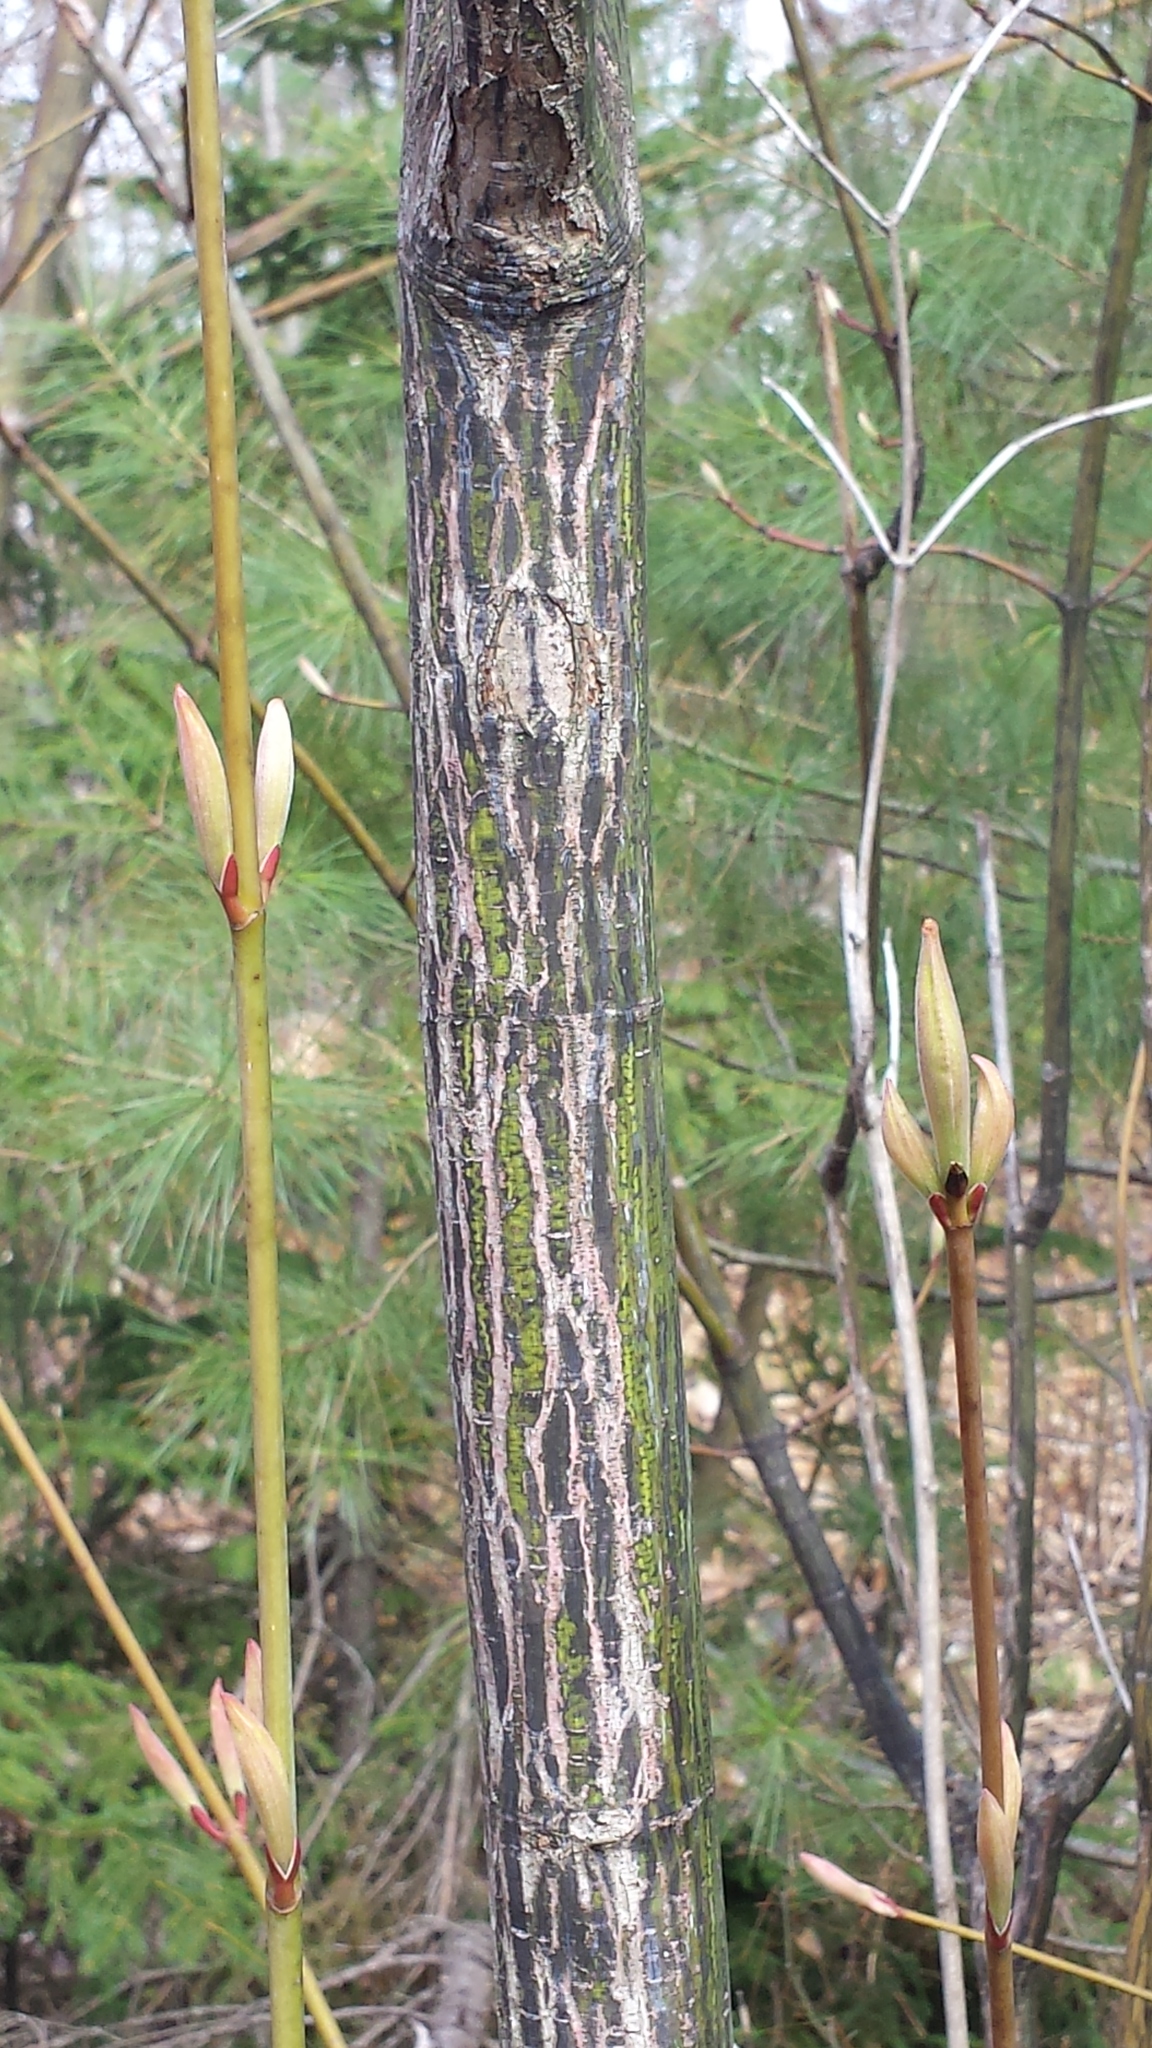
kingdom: Plantae
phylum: Tracheophyta
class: Magnoliopsida
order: Sapindales
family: Sapindaceae
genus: Acer
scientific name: Acer pensylvanicum
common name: Moosewood
